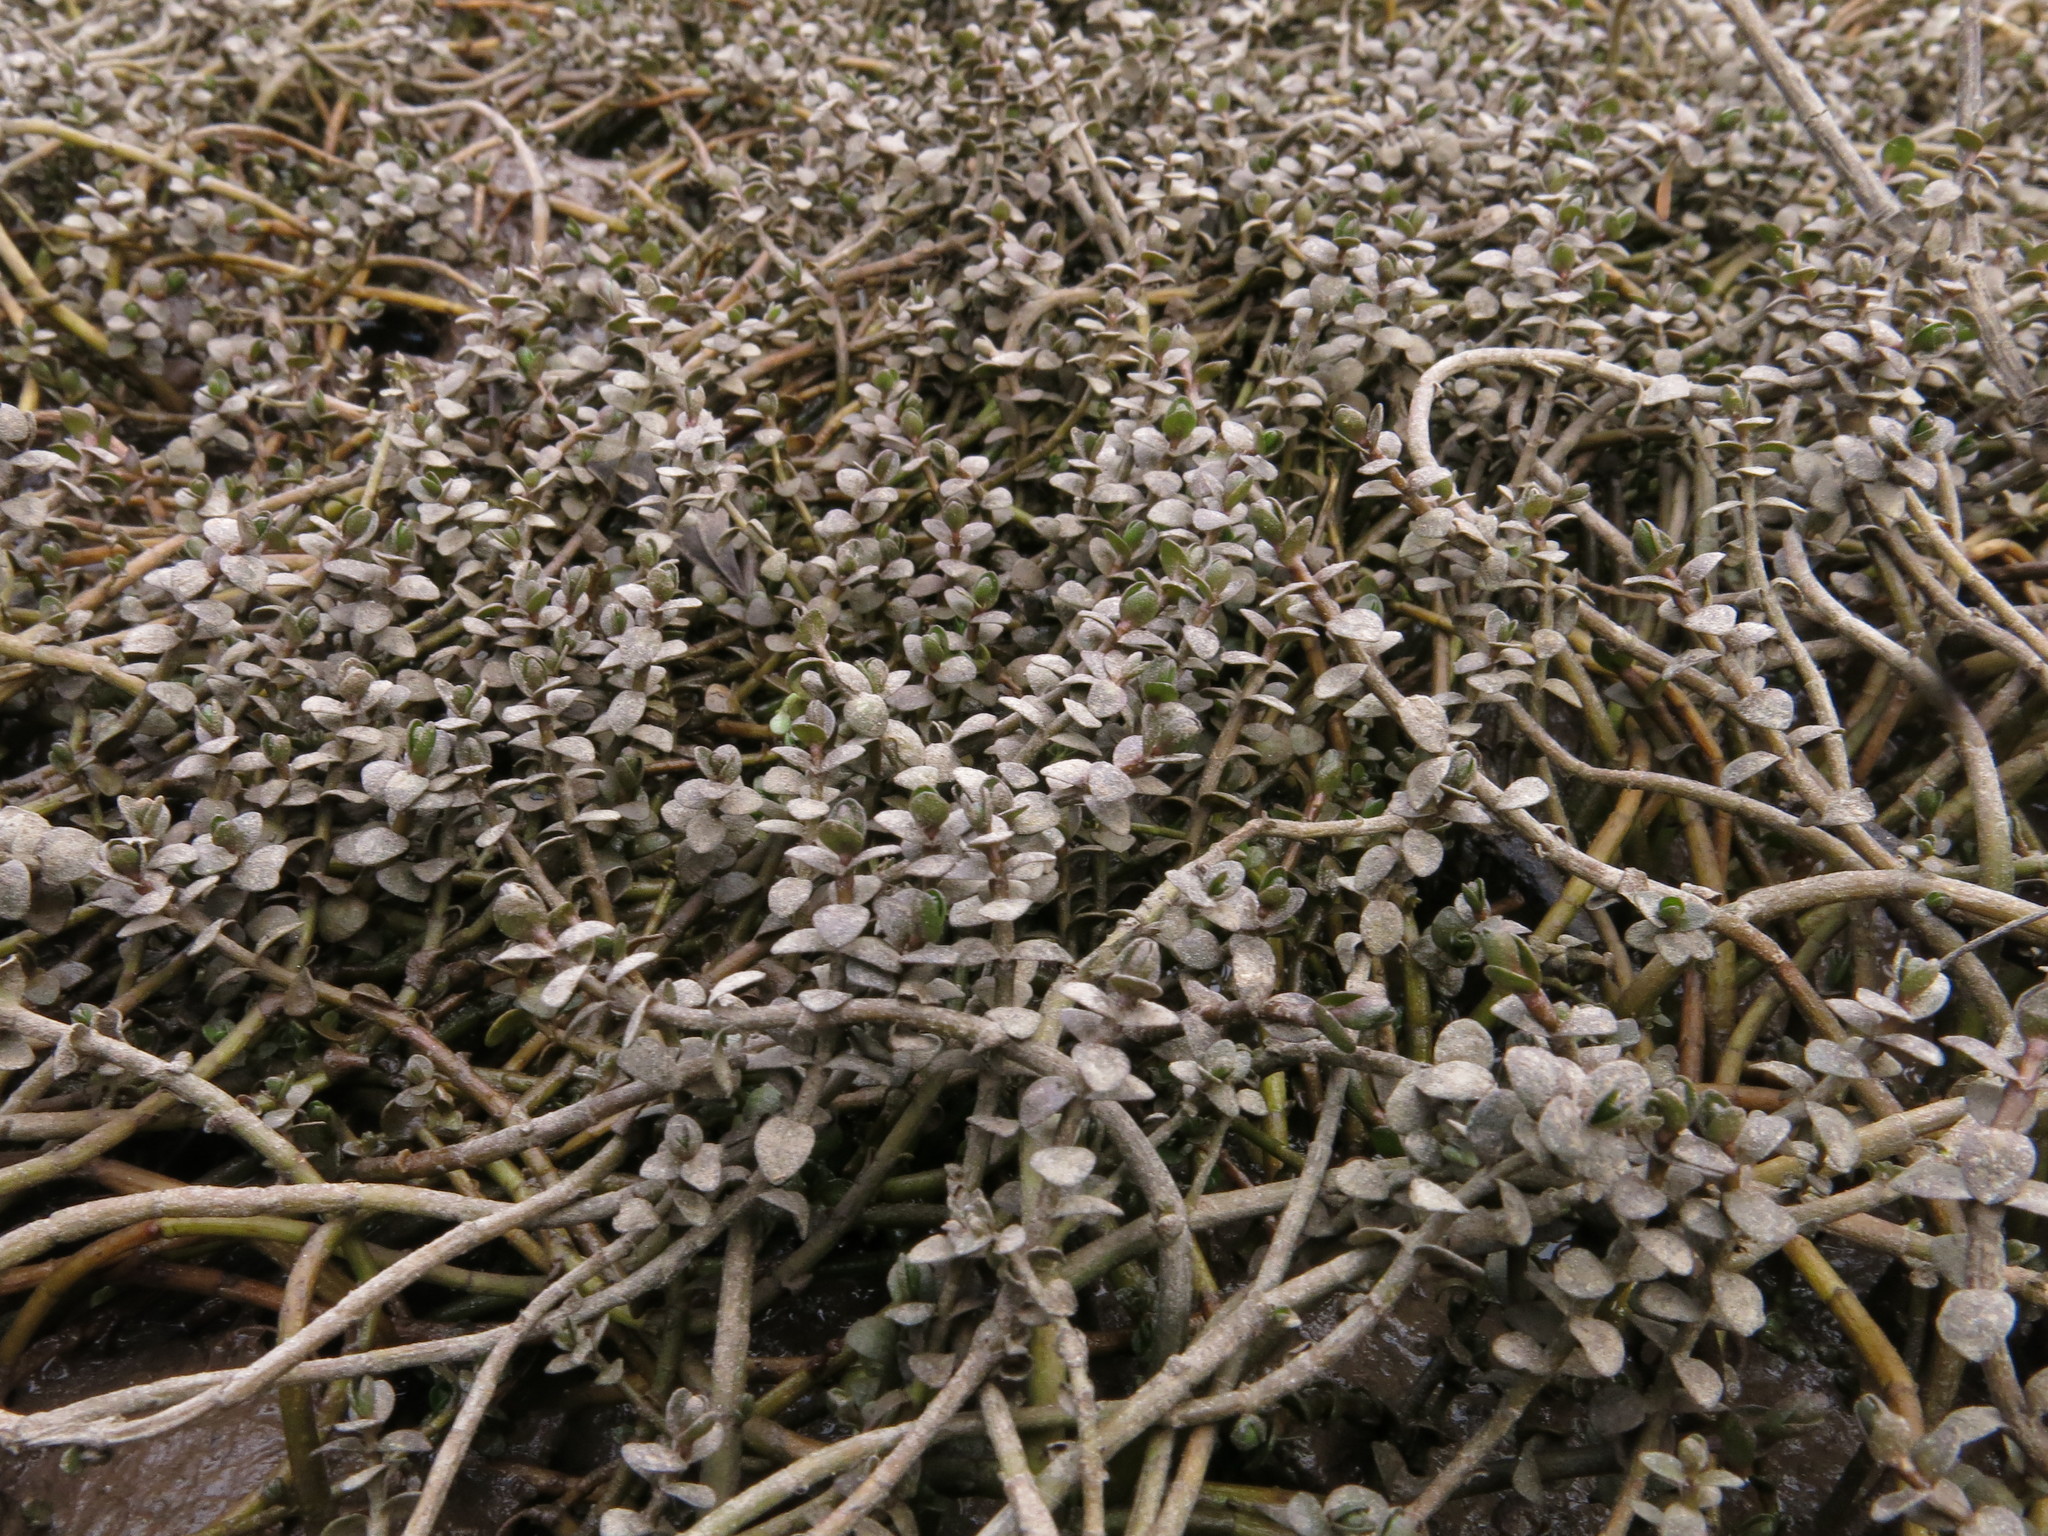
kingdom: Plantae
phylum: Tracheophyta
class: Magnoliopsida
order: Lamiales
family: Phrymaceae
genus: Thyridia
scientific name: Thyridia repens
